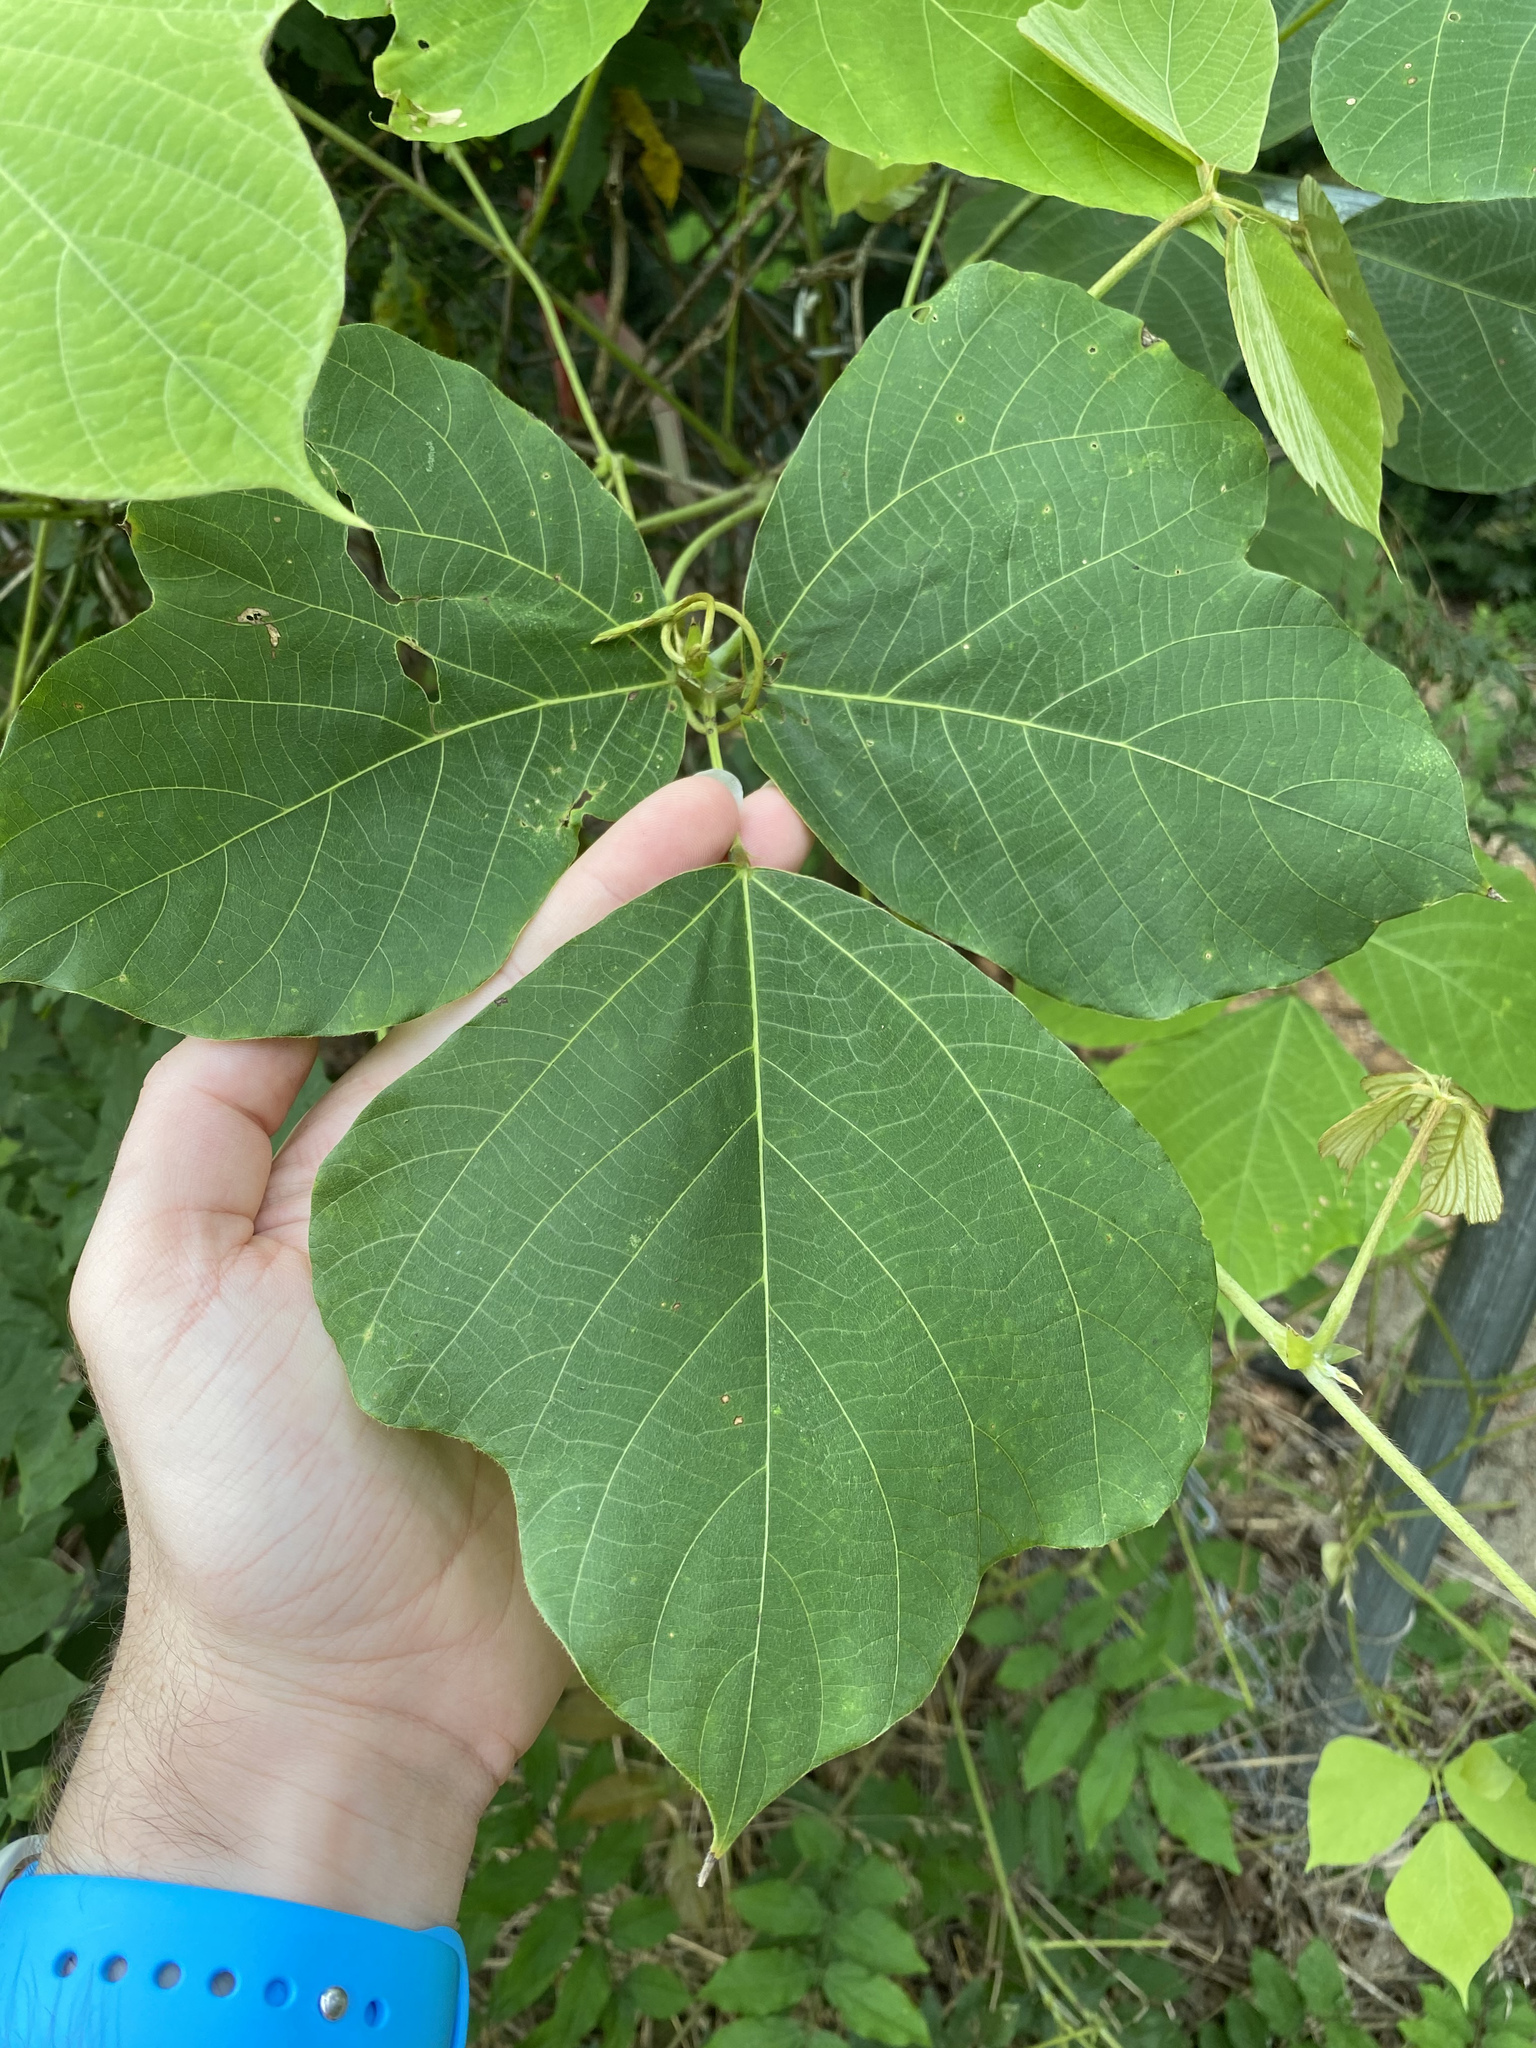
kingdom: Plantae
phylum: Tracheophyta
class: Magnoliopsida
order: Fabales
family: Fabaceae
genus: Pueraria
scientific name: Pueraria montana
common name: Kudzu
